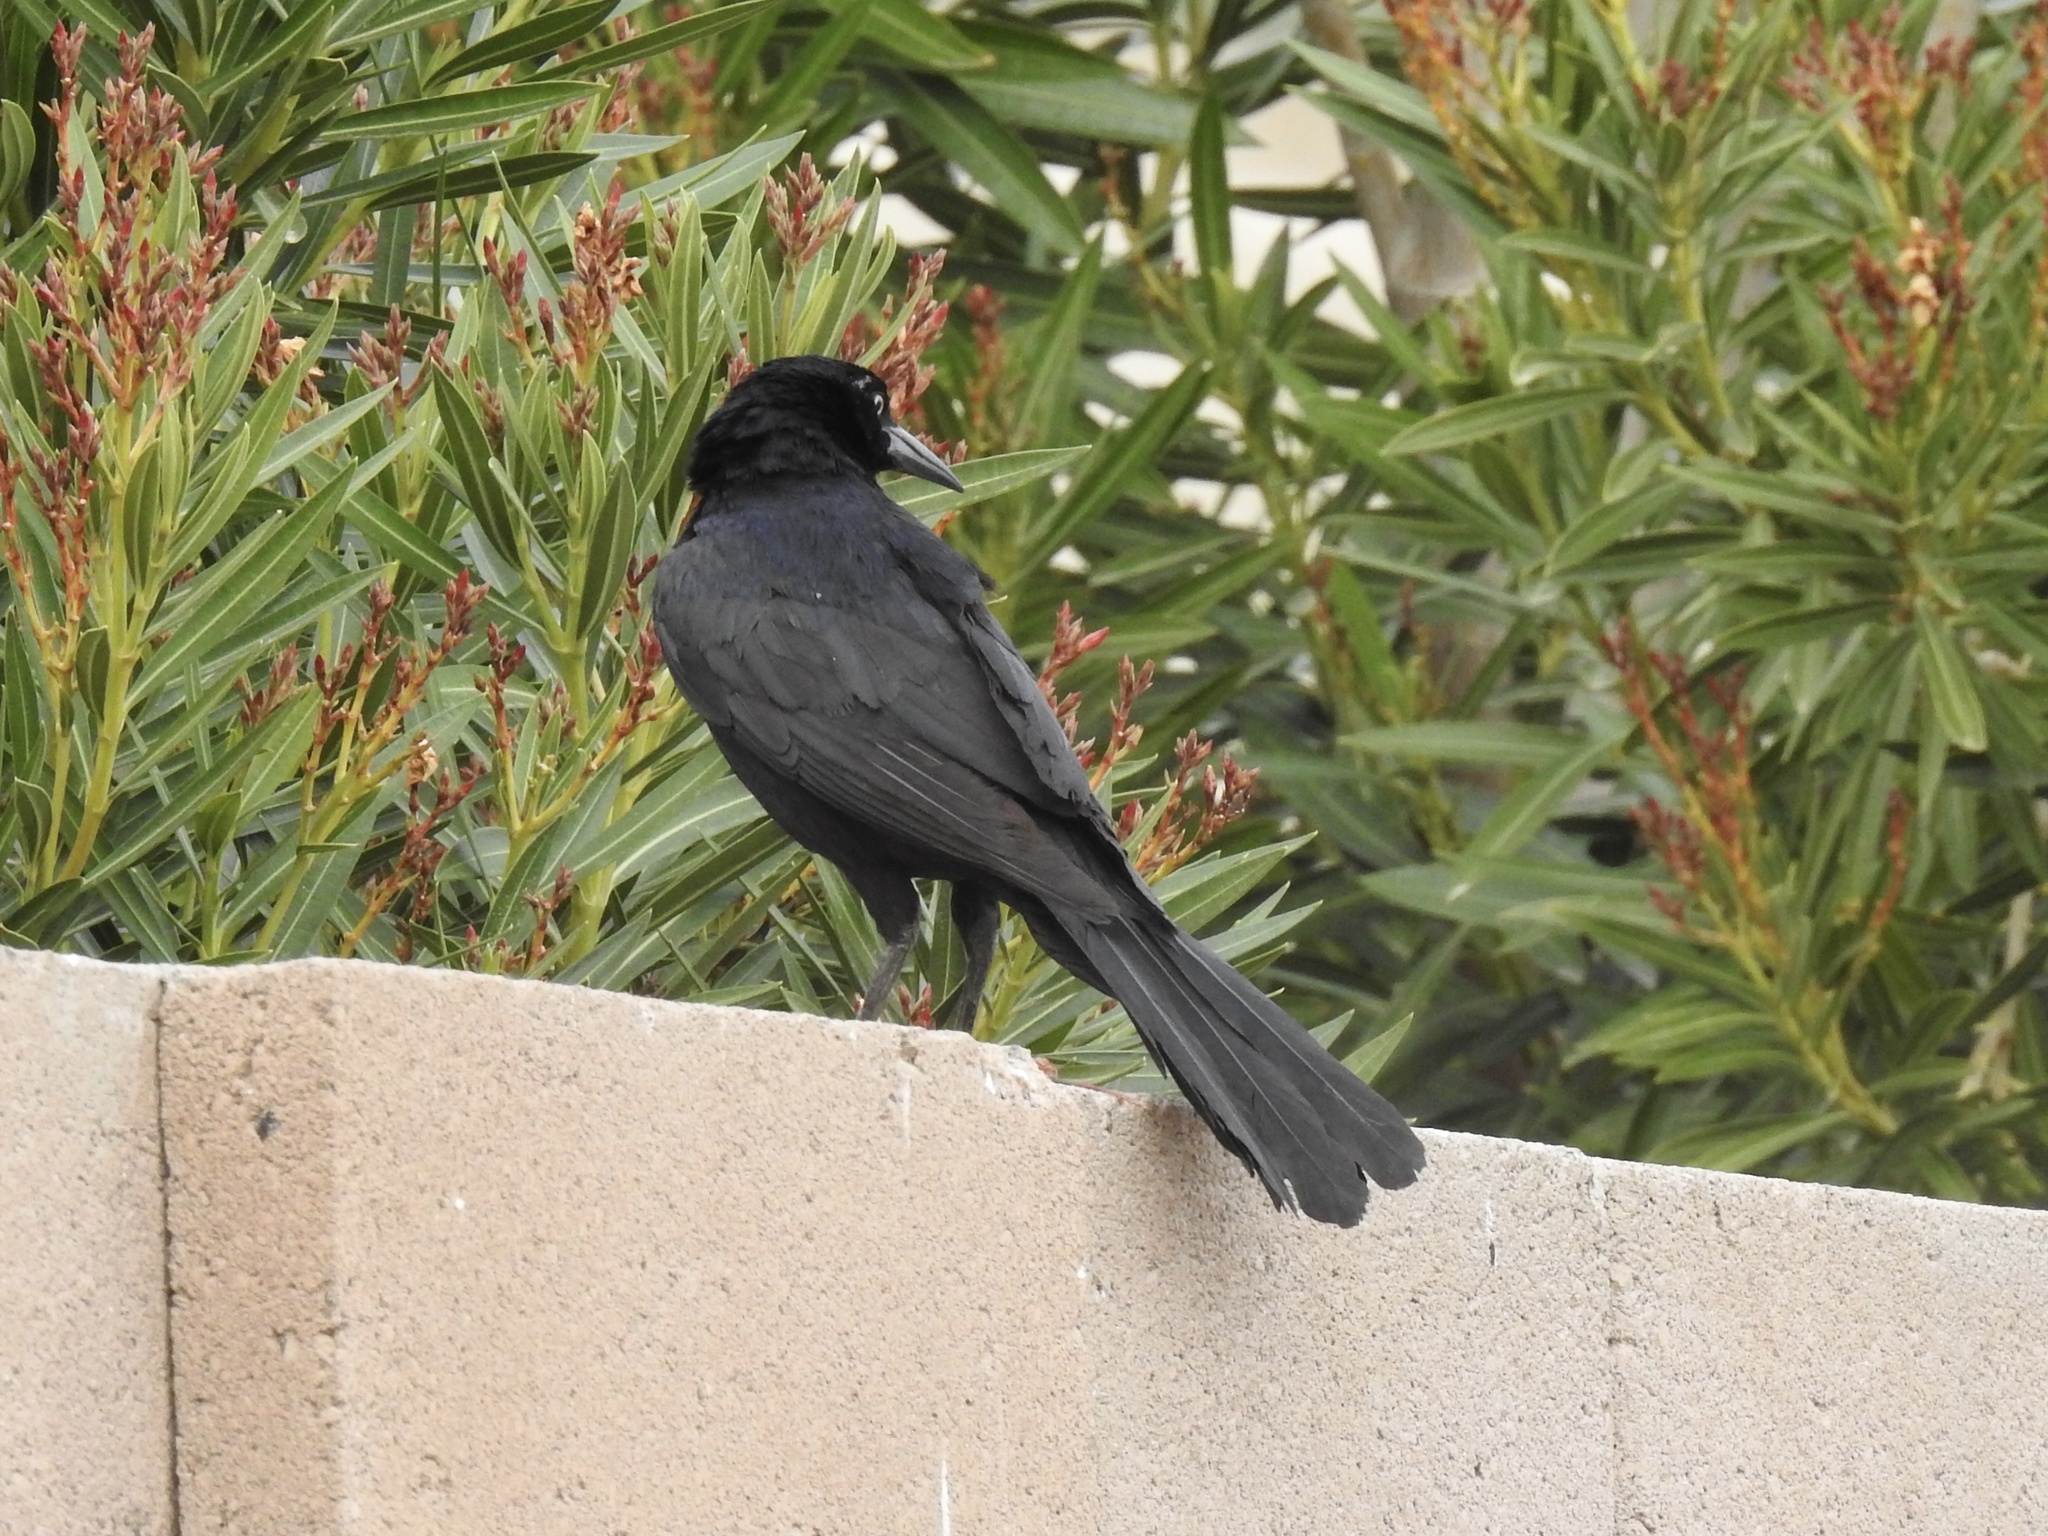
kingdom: Animalia
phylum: Chordata
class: Aves
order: Passeriformes
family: Icteridae
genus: Quiscalus
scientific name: Quiscalus mexicanus
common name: Great-tailed grackle
